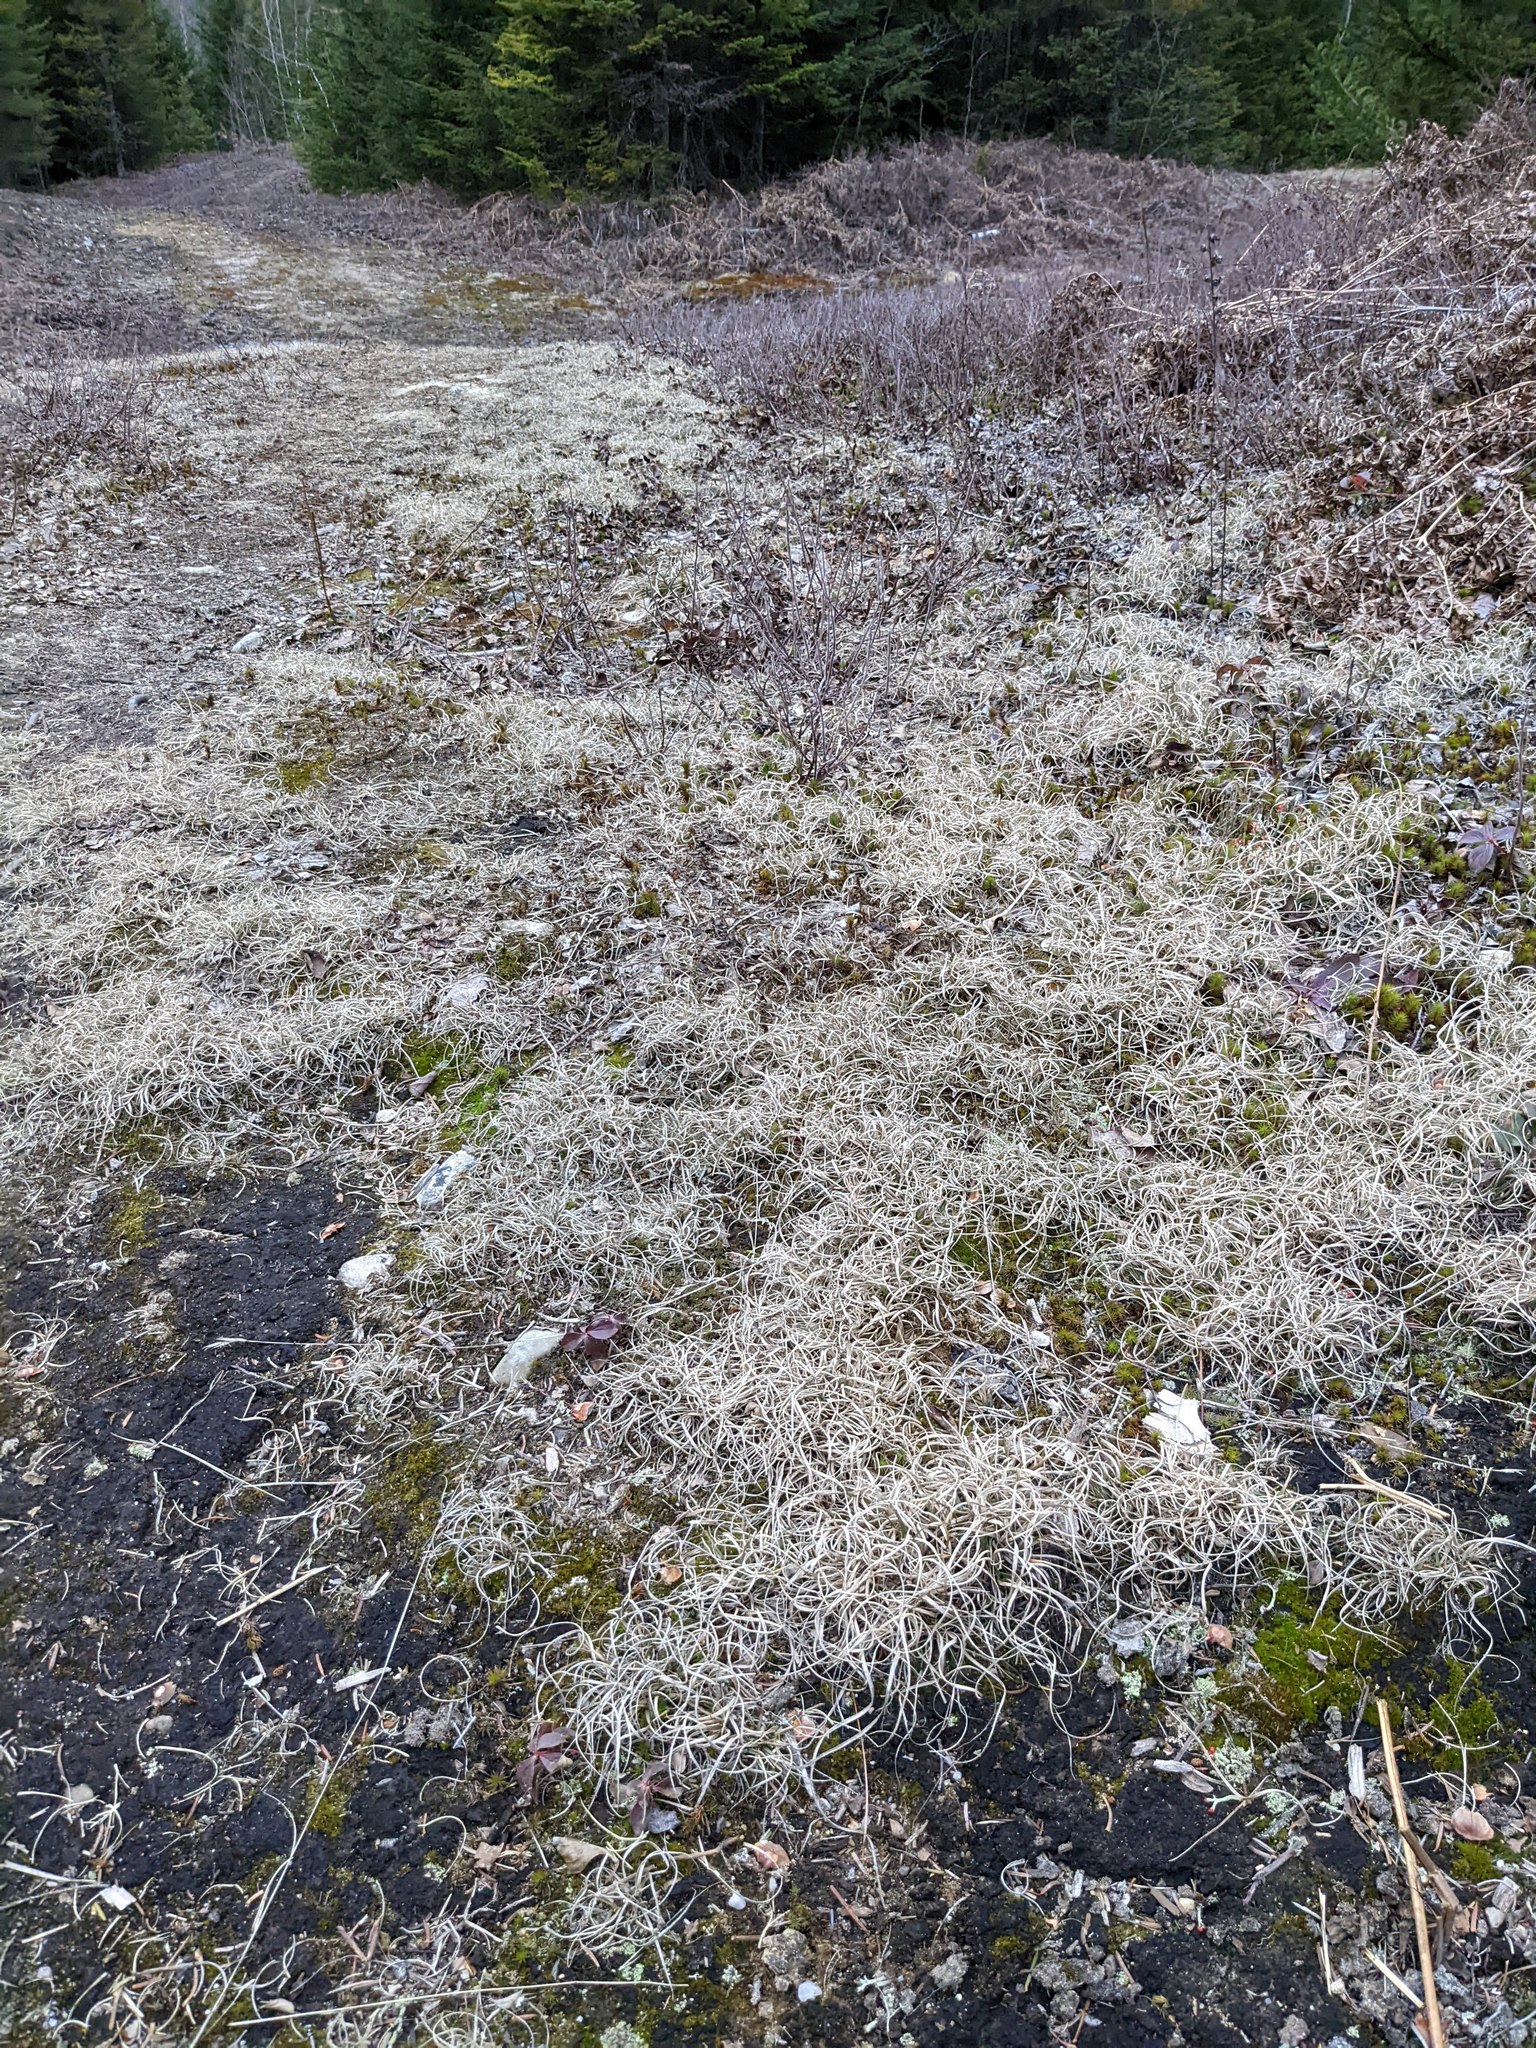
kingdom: Plantae
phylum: Tracheophyta
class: Liliopsida
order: Poales
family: Poaceae
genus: Danthonia
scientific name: Danthonia spicata
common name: Common wild oatgrass
